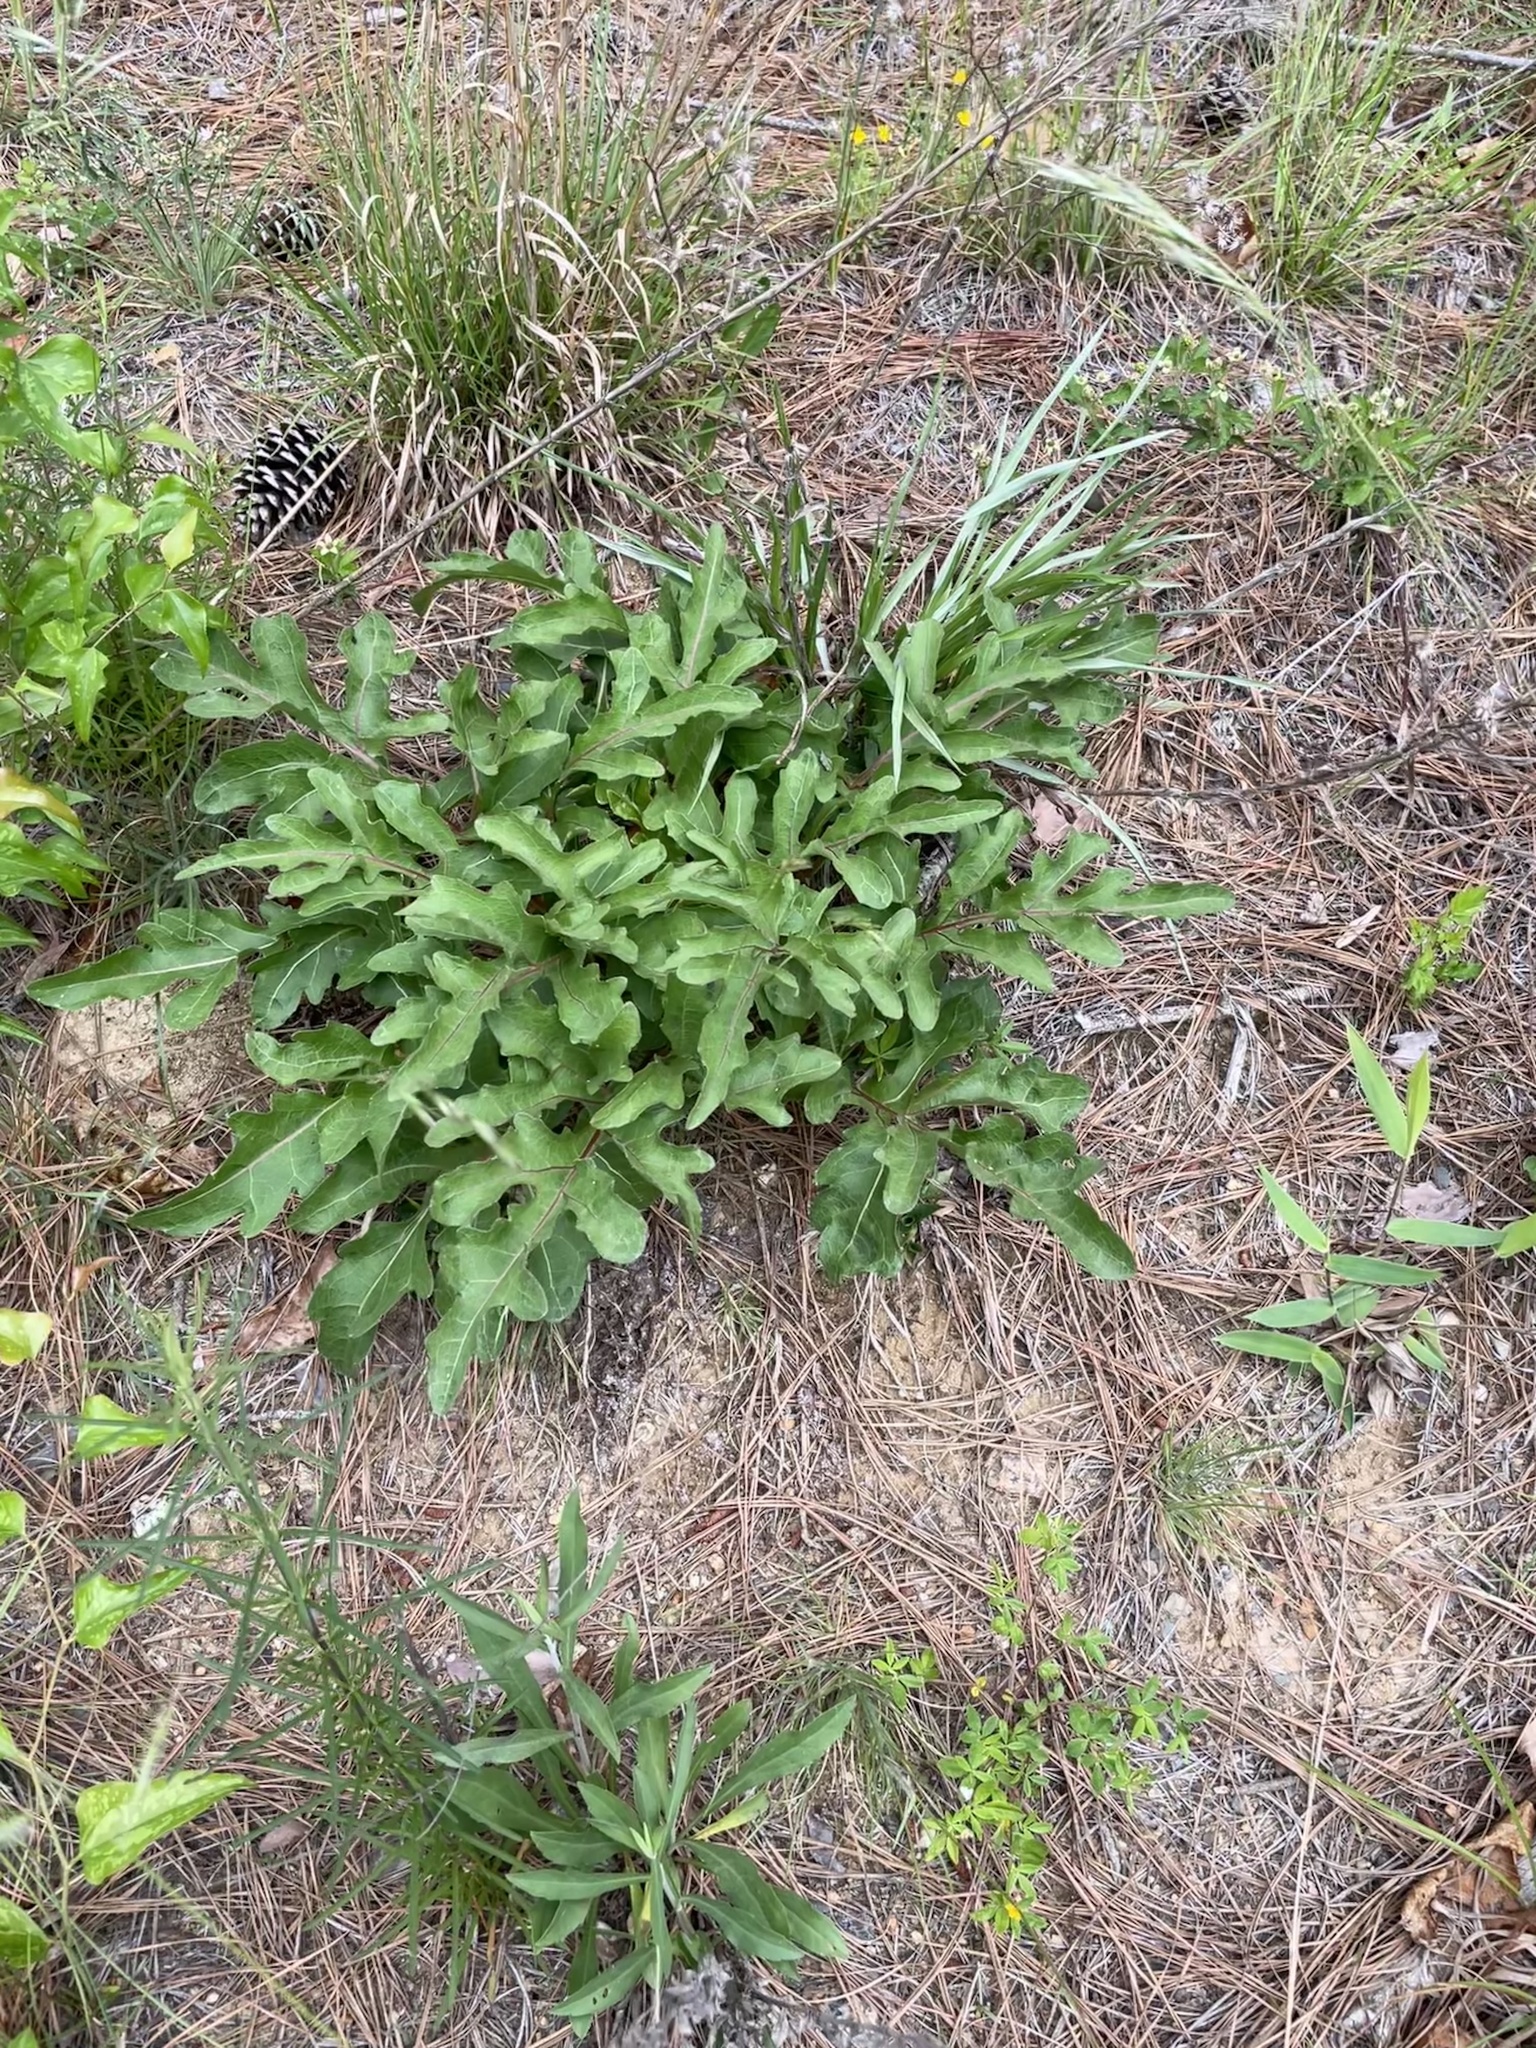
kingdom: Plantae
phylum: Tracheophyta
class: Magnoliopsida
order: Asterales
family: Asteraceae
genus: Silphium
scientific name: Silphium compositum
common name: Lesser basal-leaf rosinweed
